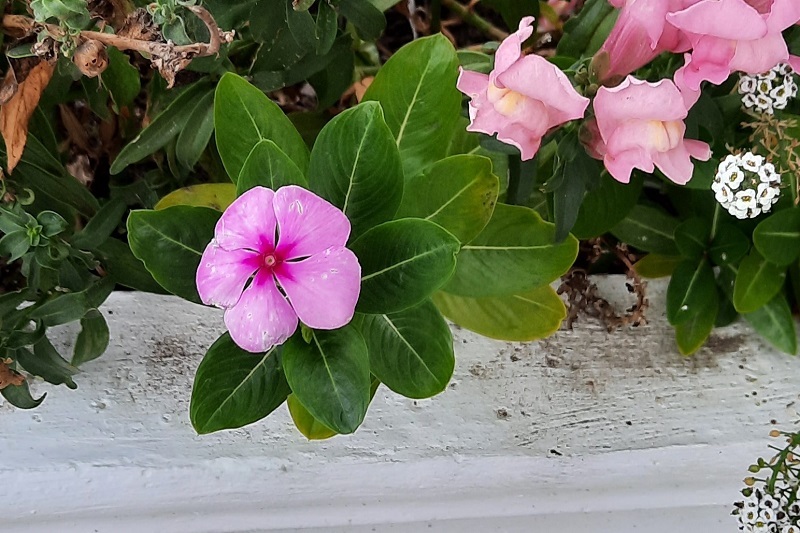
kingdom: Plantae
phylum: Tracheophyta
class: Magnoliopsida
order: Gentianales
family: Apocynaceae
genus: Catharanthus
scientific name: Catharanthus roseus
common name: Madagascar periwinkle
